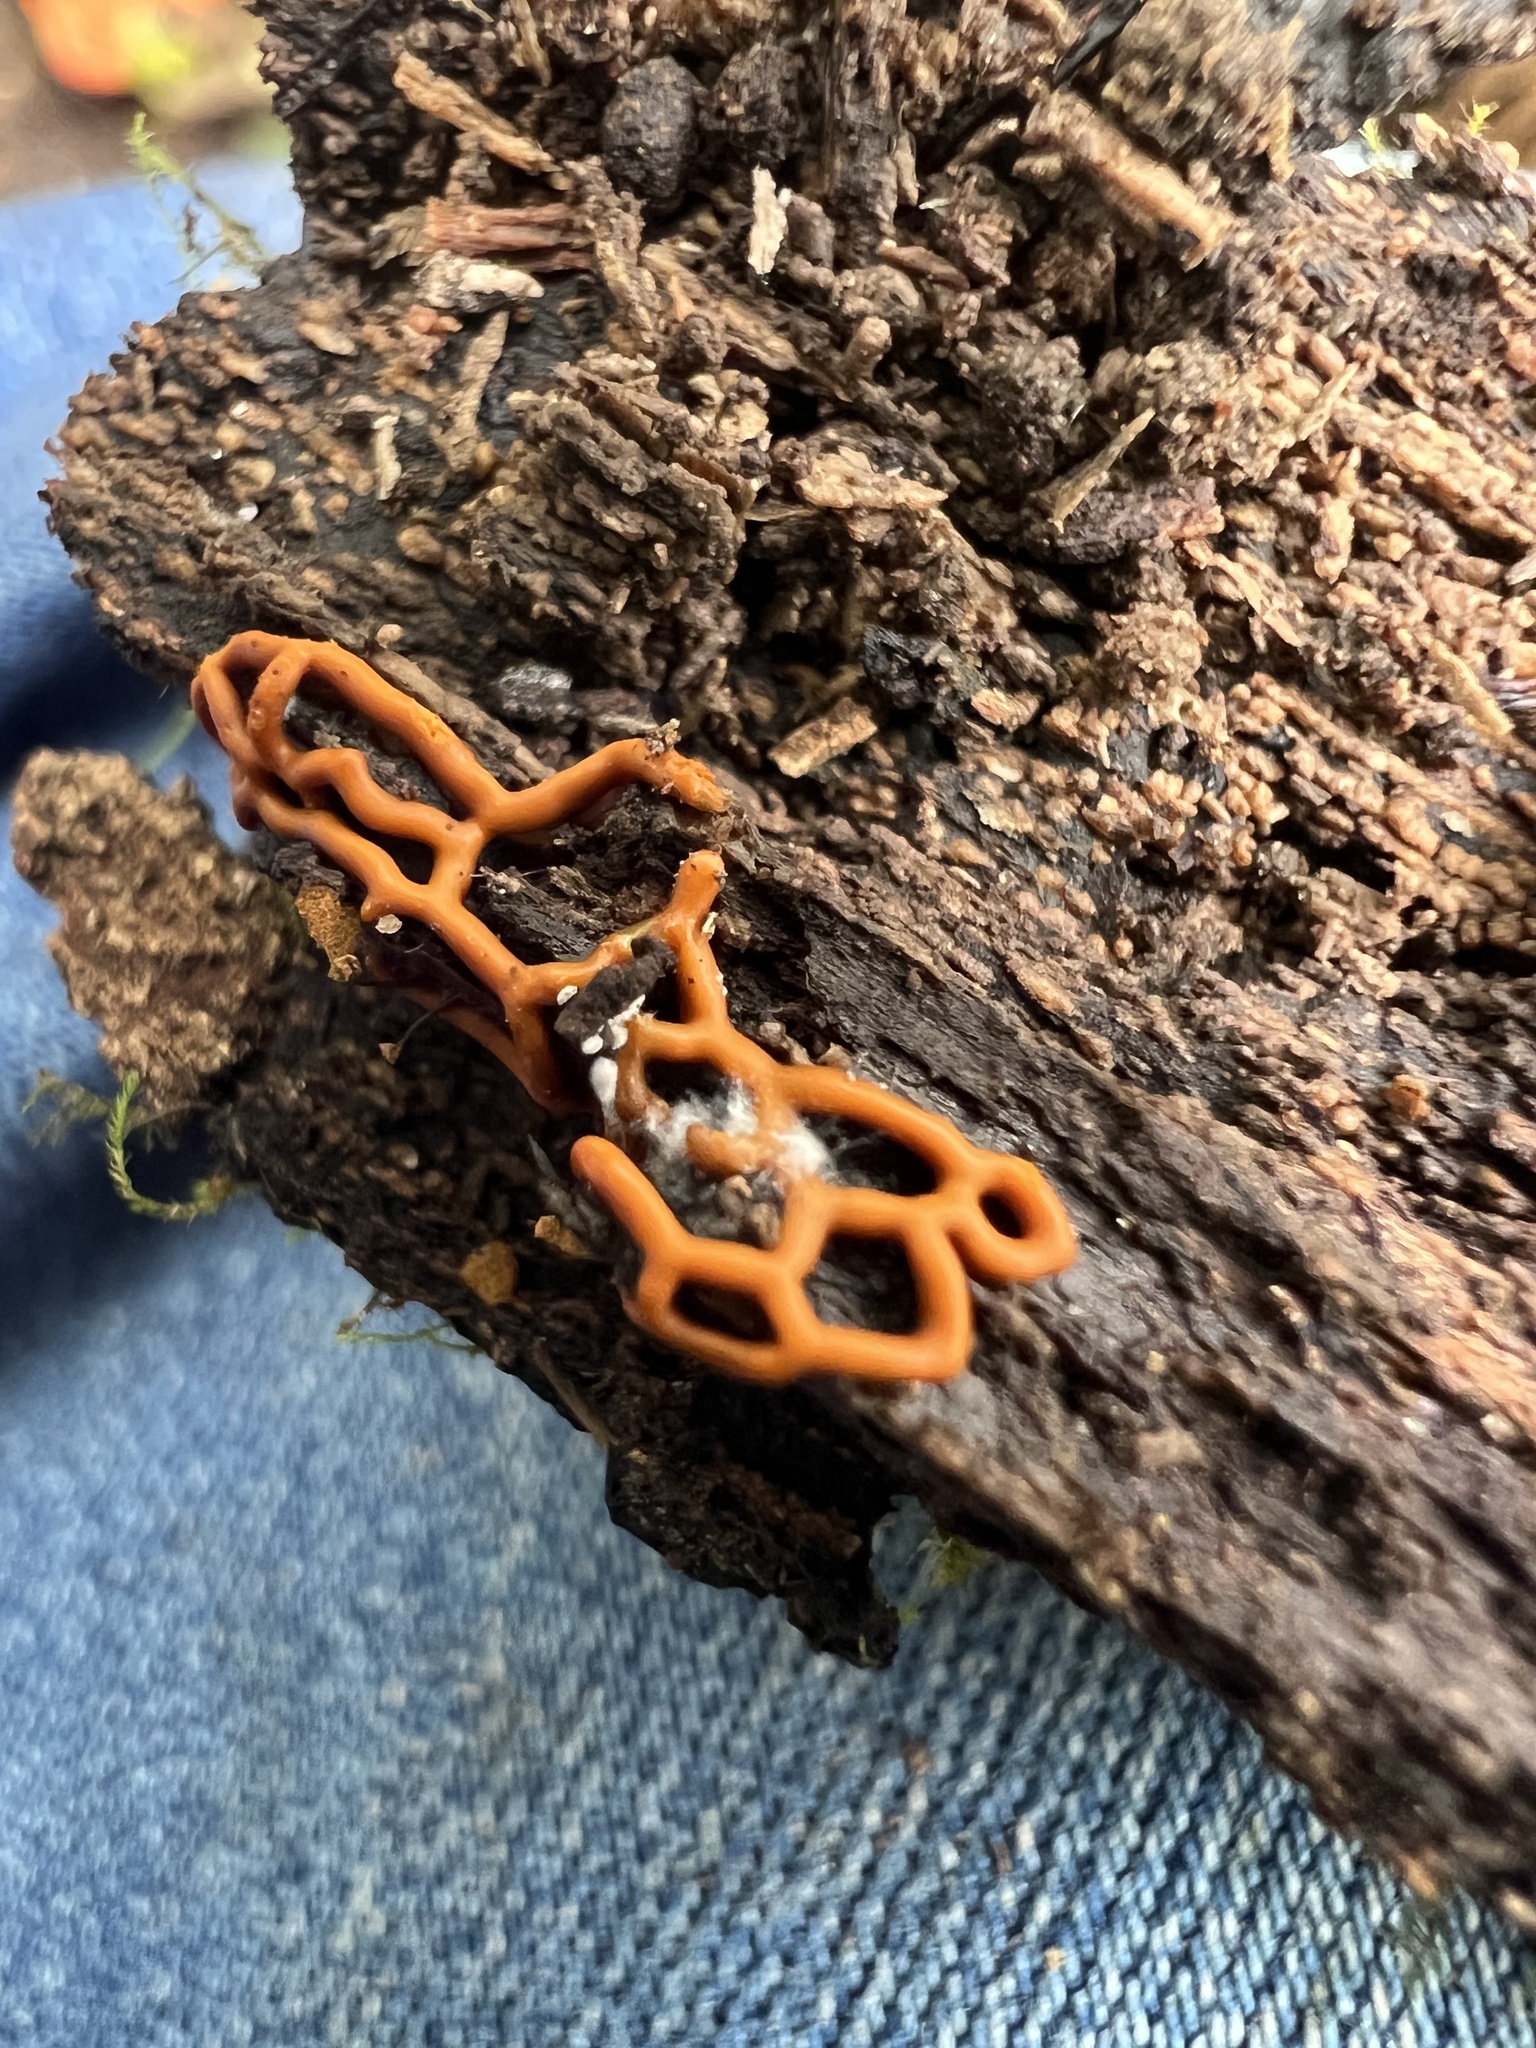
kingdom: Protozoa
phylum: Mycetozoa
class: Myxomycetes
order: Trichiales
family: Arcyriaceae
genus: Hemitrichia
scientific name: Hemitrichia serpula
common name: Pretzel slime mold
